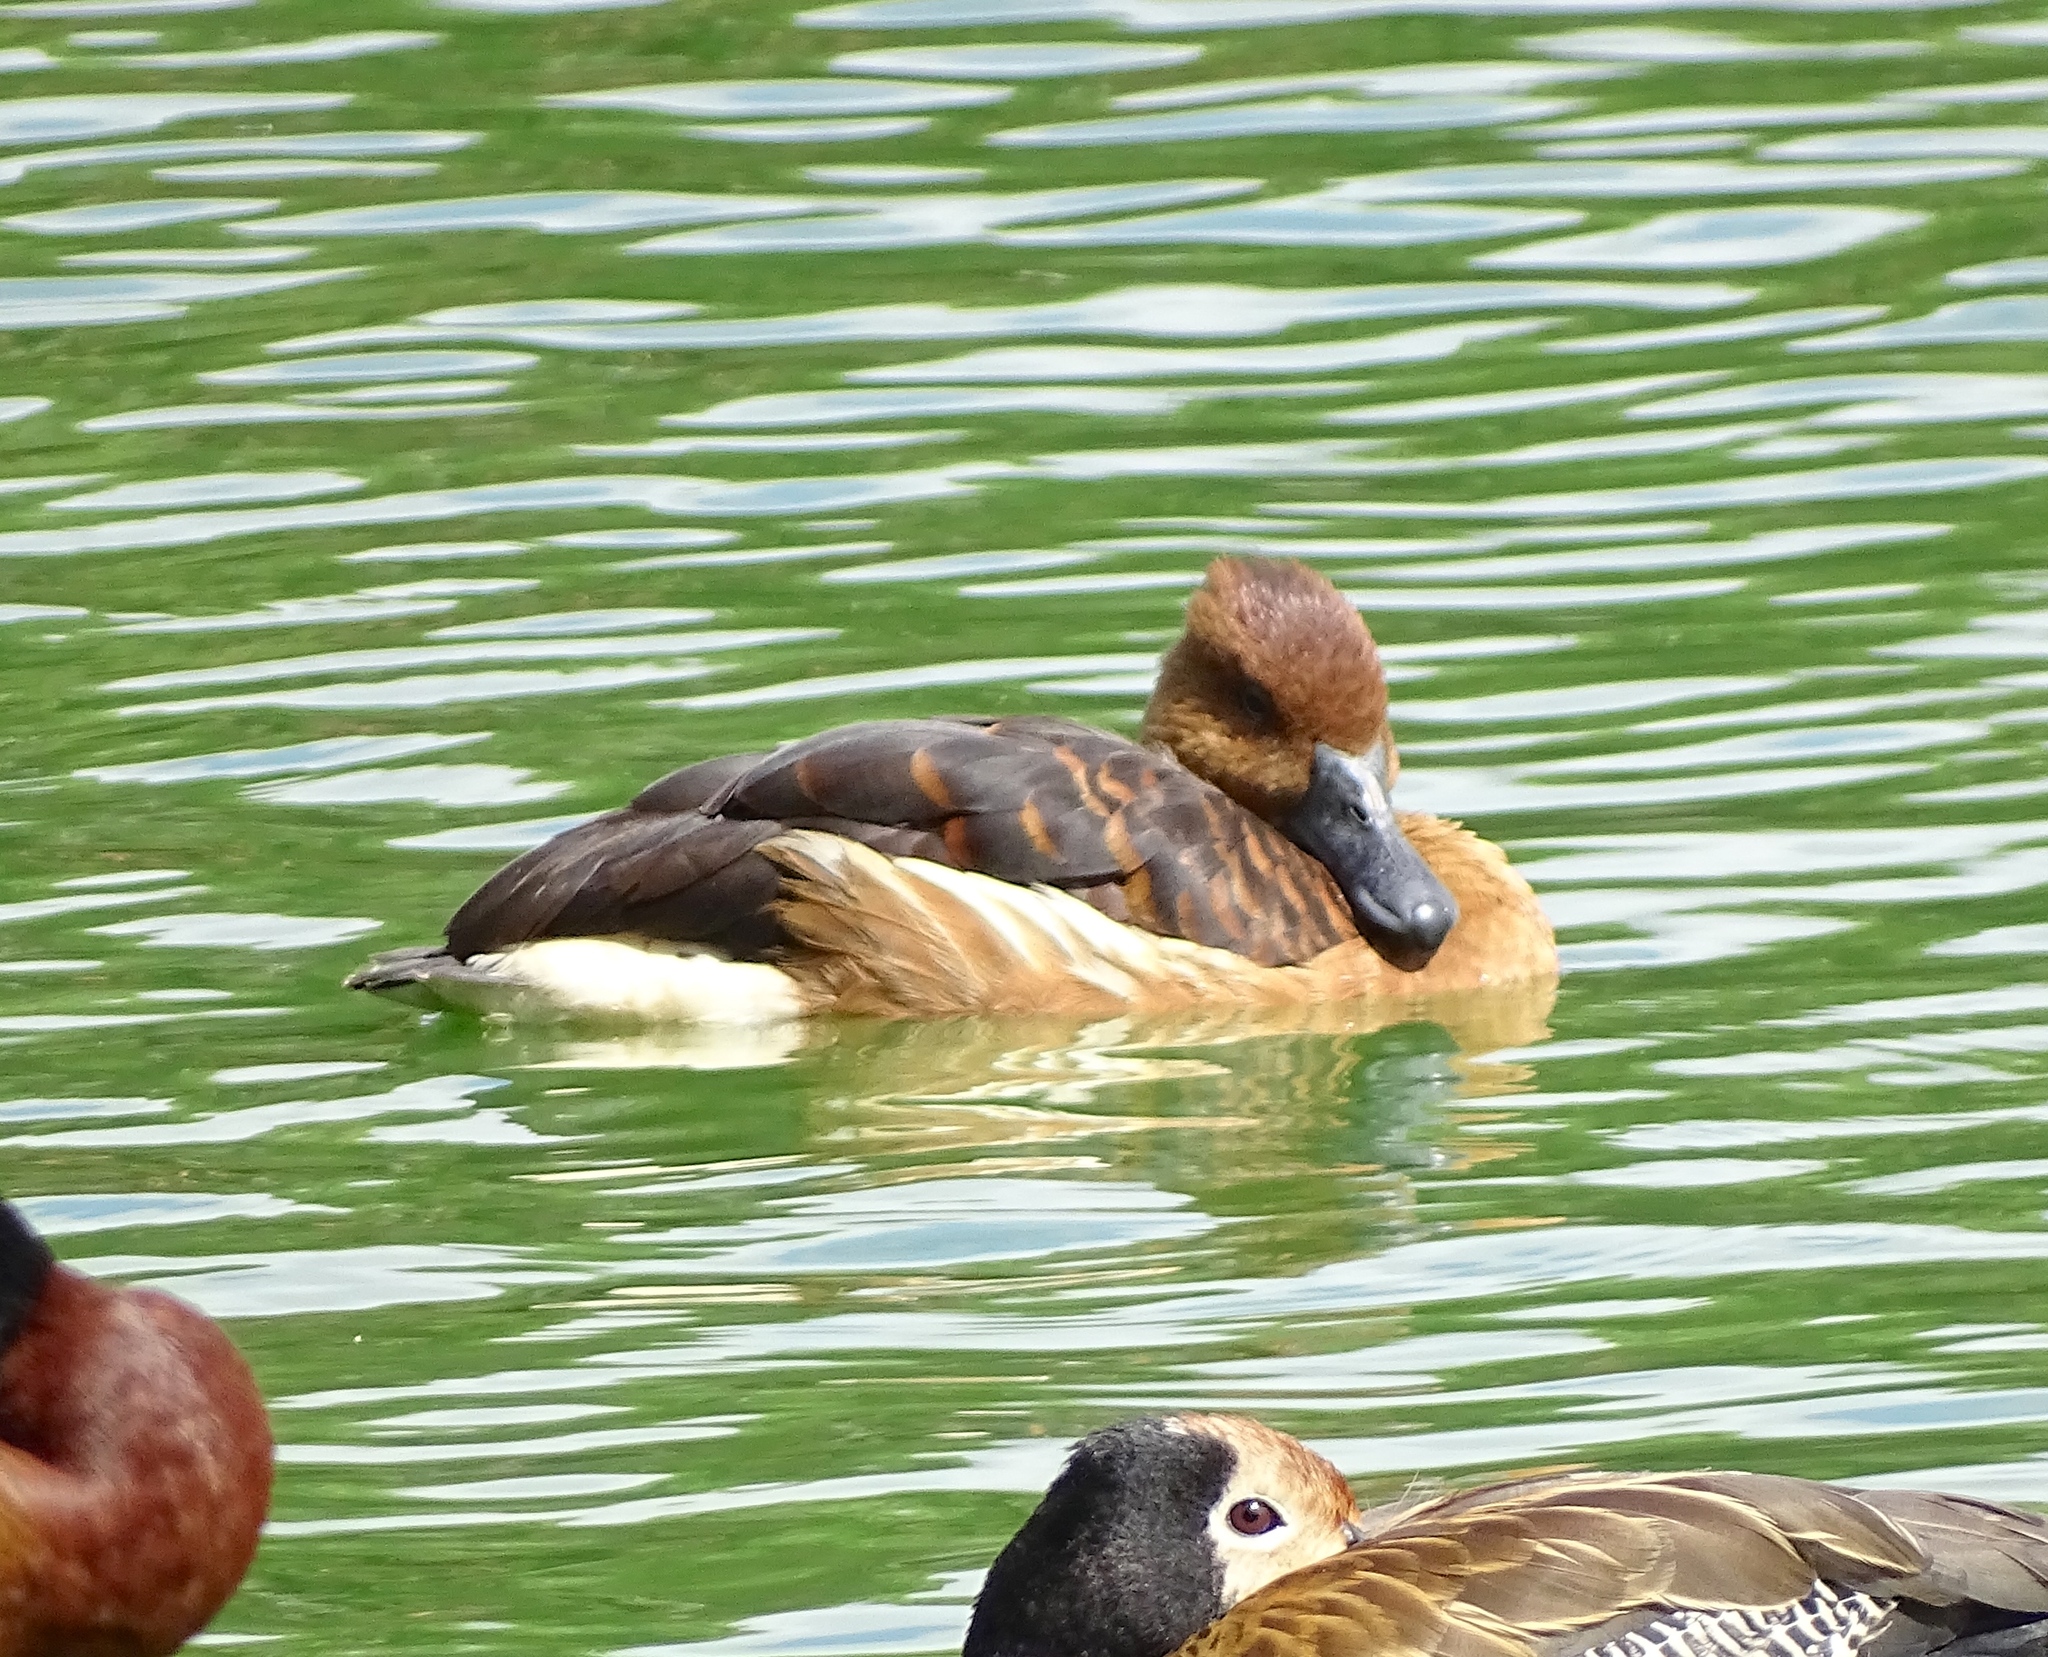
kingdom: Animalia
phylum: Chordata
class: Aves
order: Anseriformes
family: Anatidae
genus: Dendrocygna
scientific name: Dendrocygna bicolor
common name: Fulvous whistling duck
